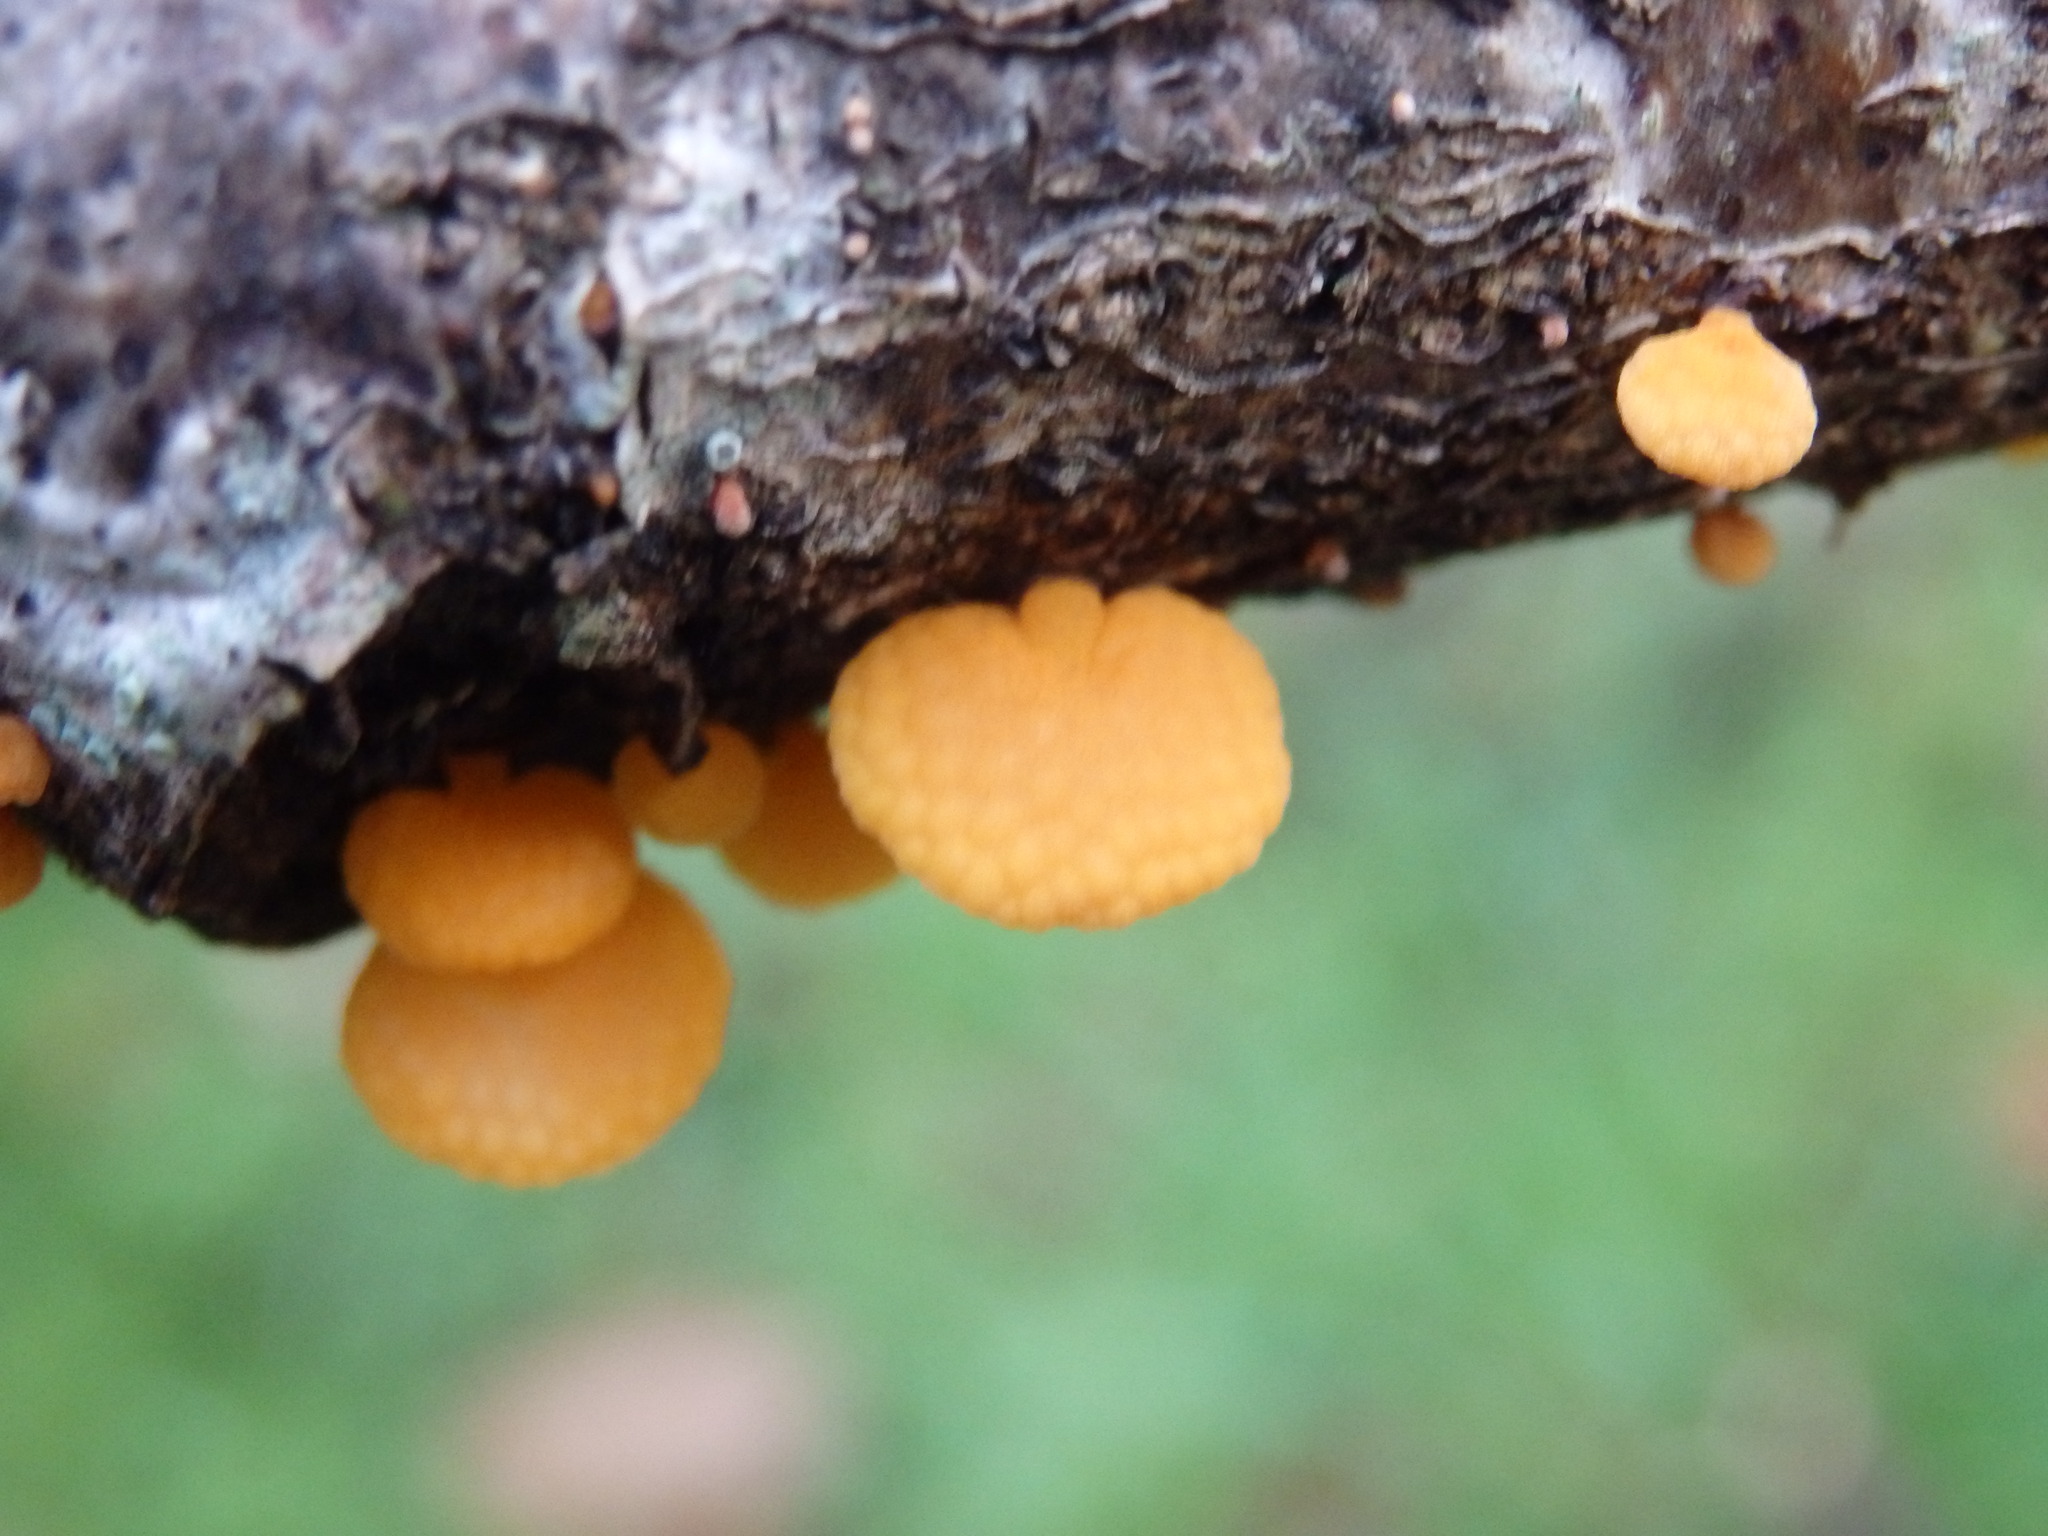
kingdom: Fungi
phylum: Basidiomycota
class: Agaricomycetes
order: Agaricales
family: Mycenaceae
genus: Favolaschia
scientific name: Favolaschia claudopus
